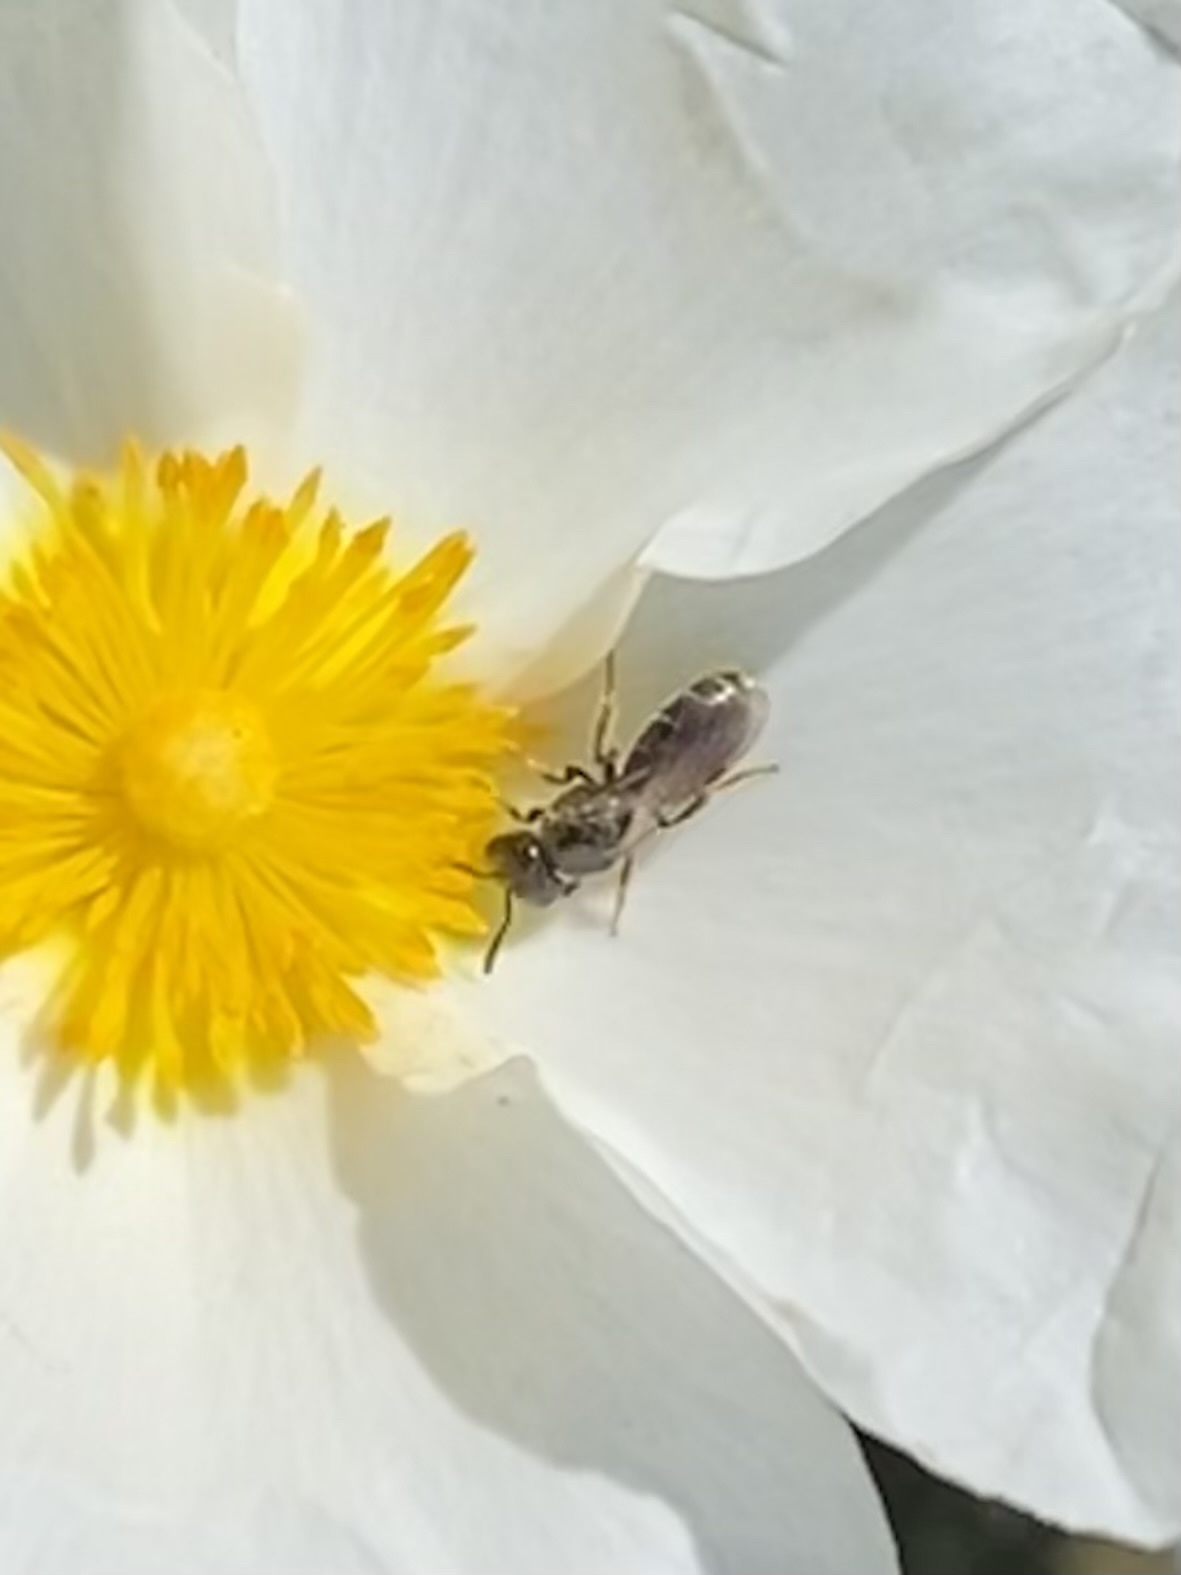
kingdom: Animalia
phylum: Arthropoda
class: Insecta
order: Hymenoptera
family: Halictidae
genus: Lasioglossum
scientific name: Lasioglossum
